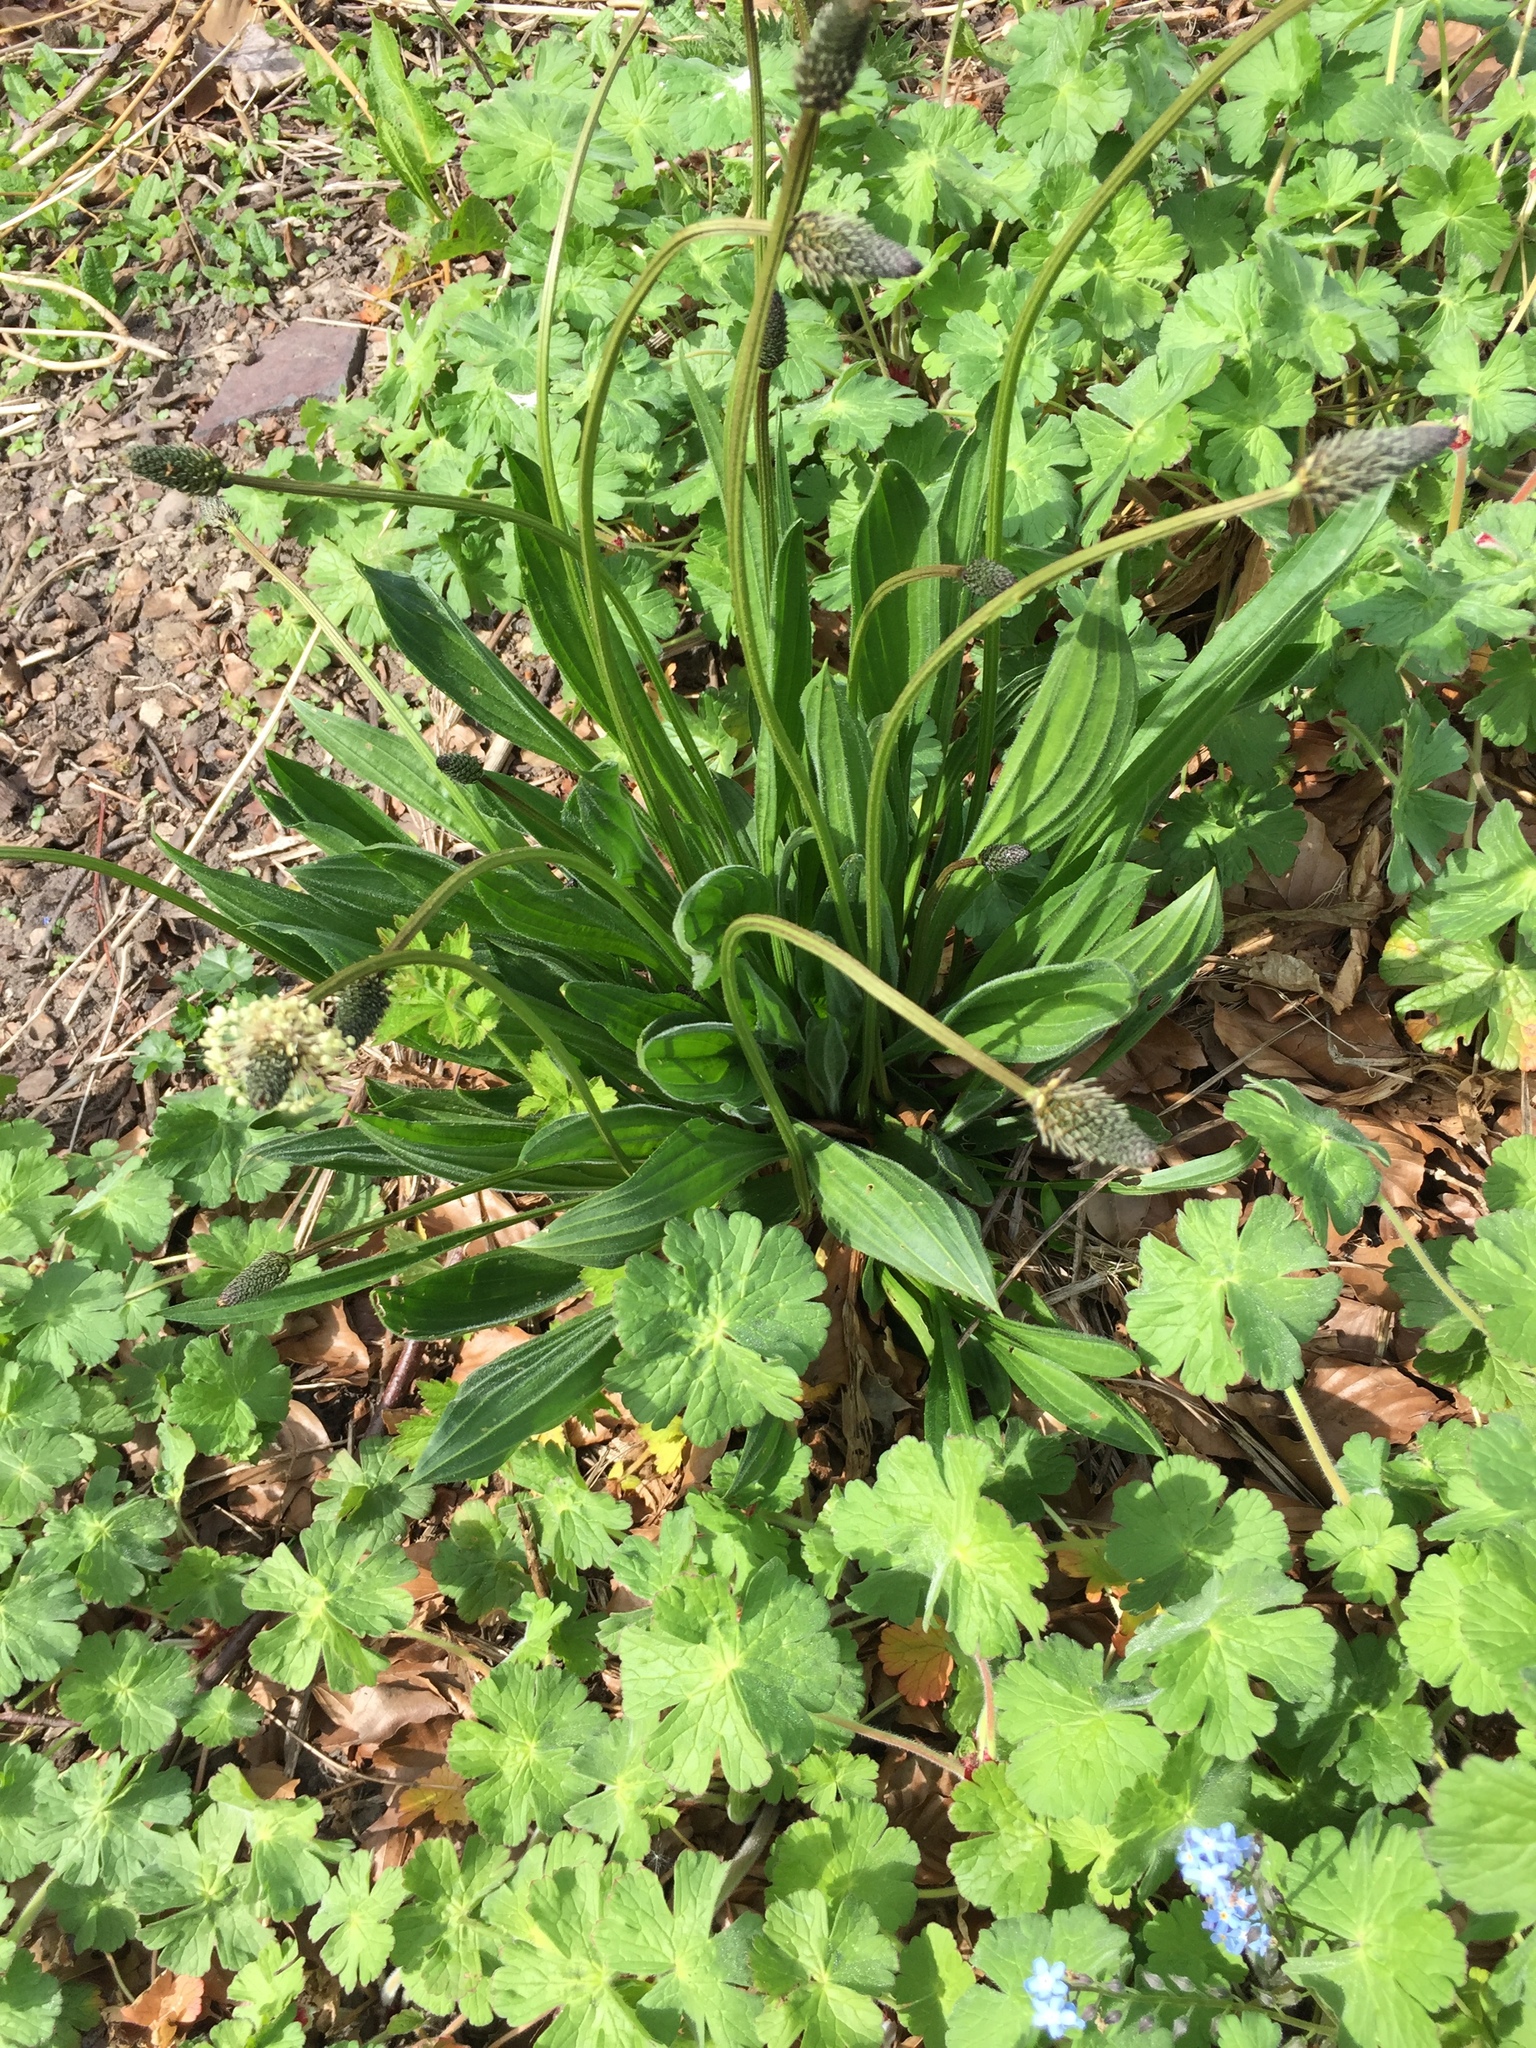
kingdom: Plantae
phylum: Tracheophyta
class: Magnoliopsida
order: Lamiales
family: Plantaginaceae
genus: Plantago
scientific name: Plantago lanceolata
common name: Ribwort plantain
